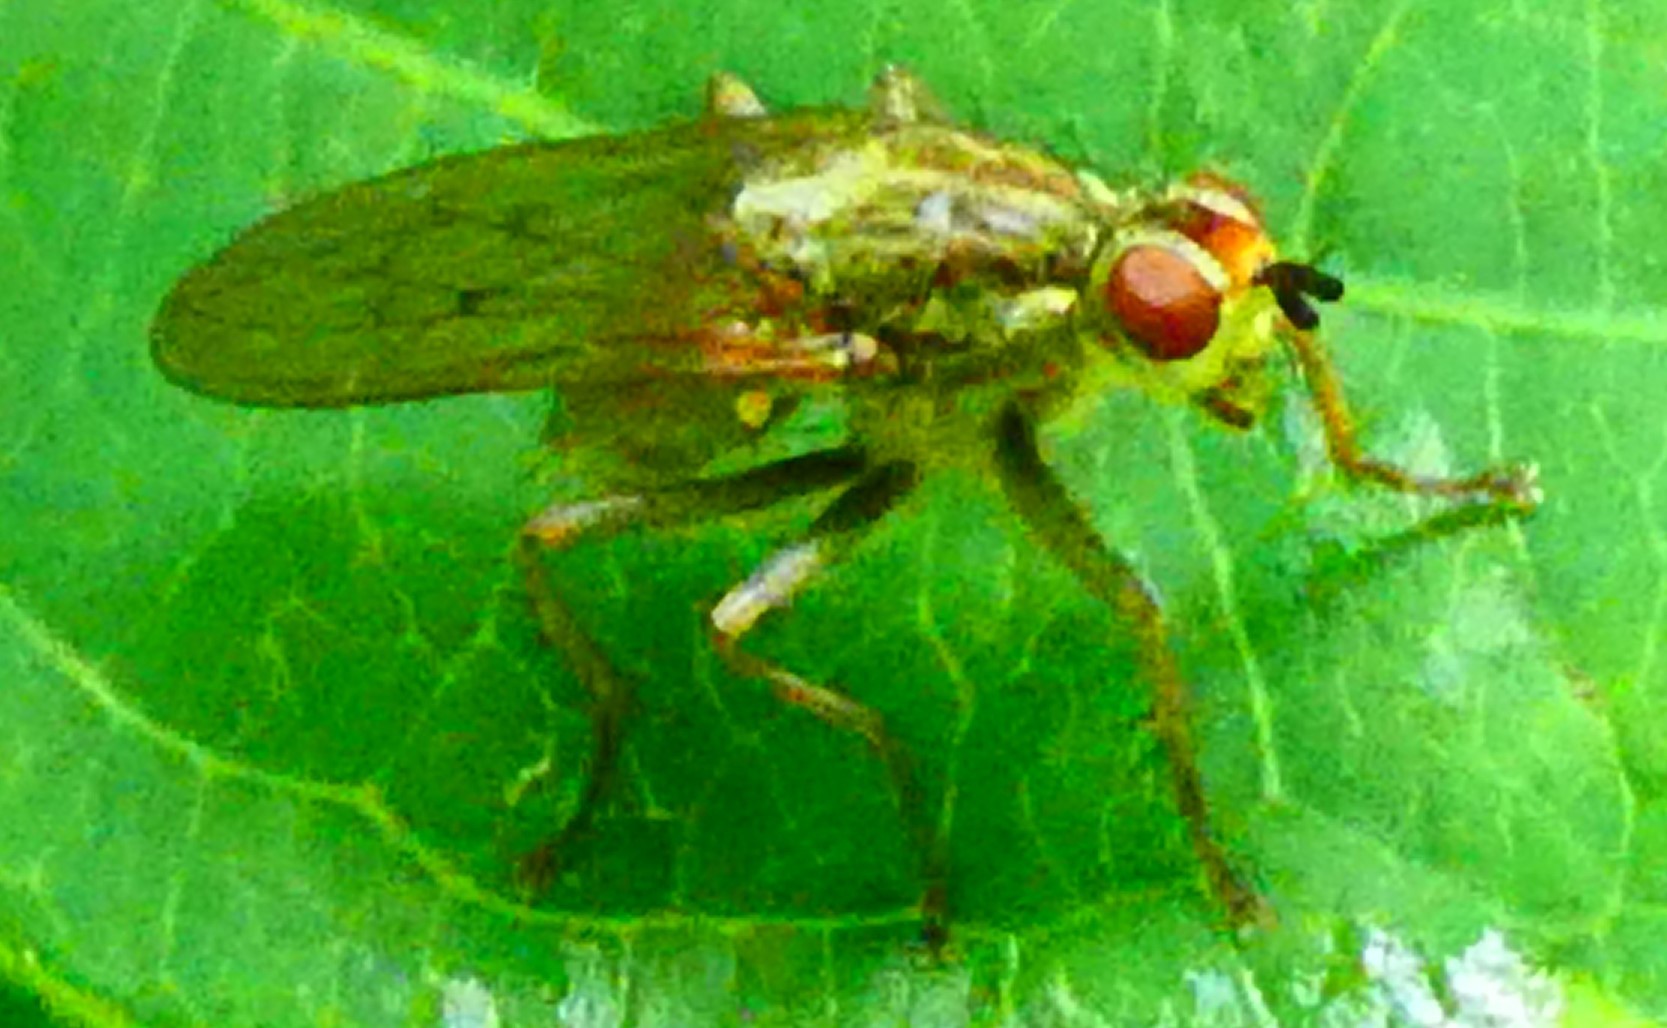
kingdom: Animalia
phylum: Arthropoda
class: Insecta
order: Diptera
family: Scathophagidae
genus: Scathophaga
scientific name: Scathophaga stercoraria
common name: Yellow dung fly
